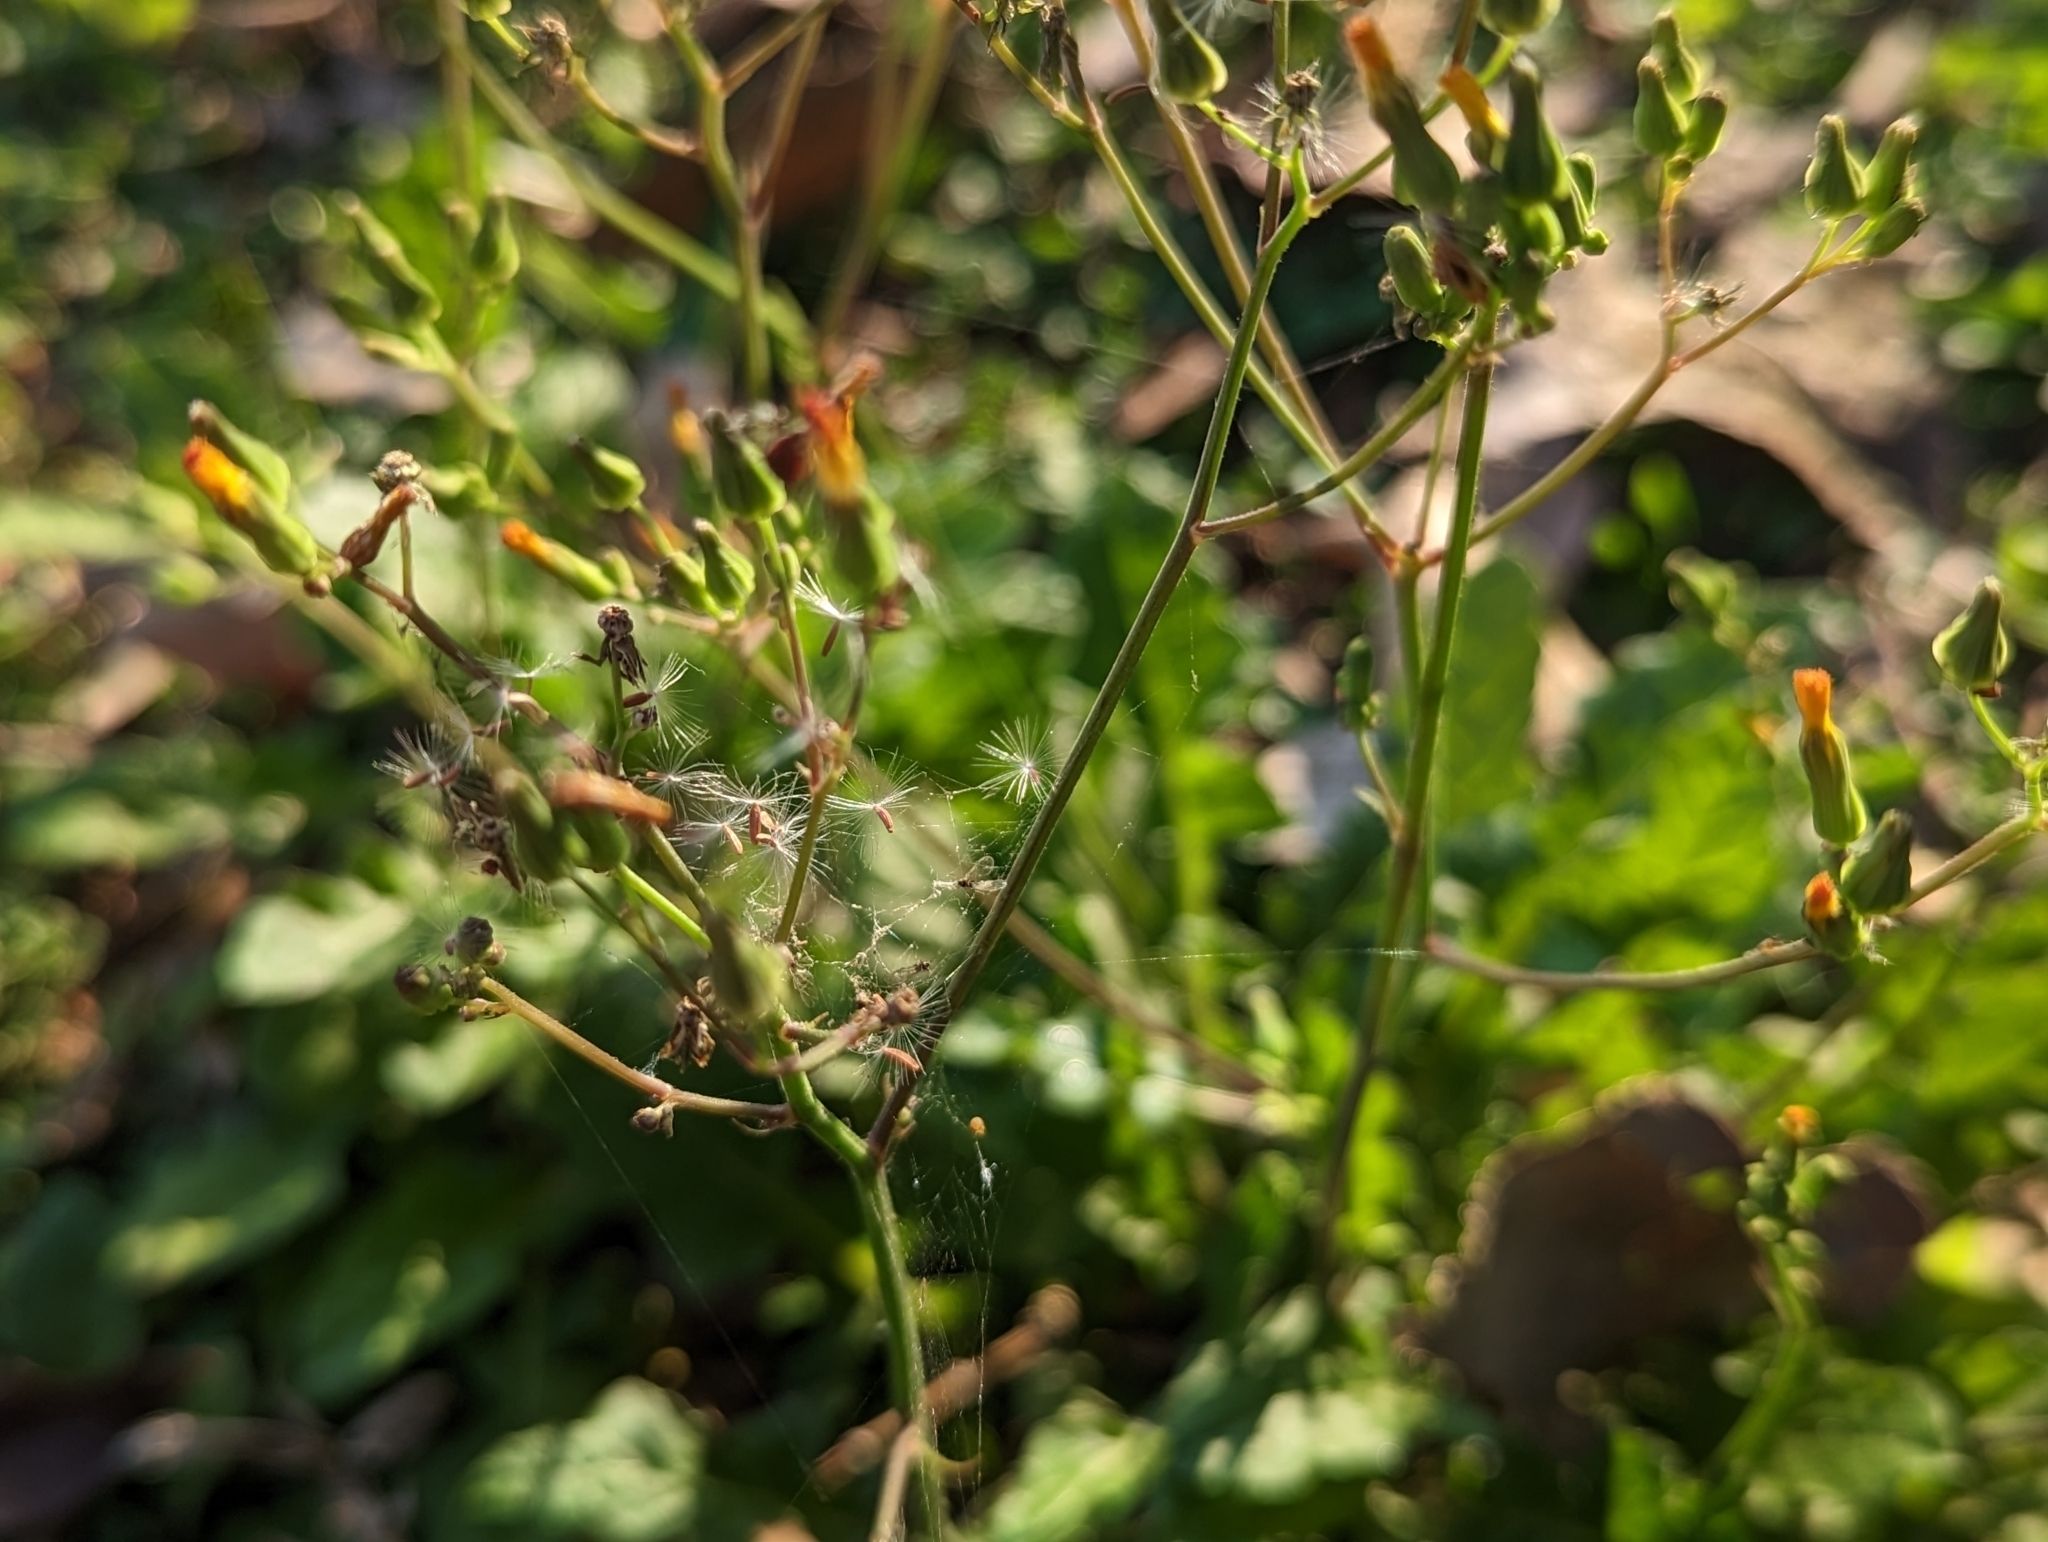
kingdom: Plantae
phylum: Tracheophyta
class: Magnoliopsida
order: Asterales
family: Asteraceae
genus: Youngia
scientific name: Youngia japonica
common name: Oriental false hawksbeard
